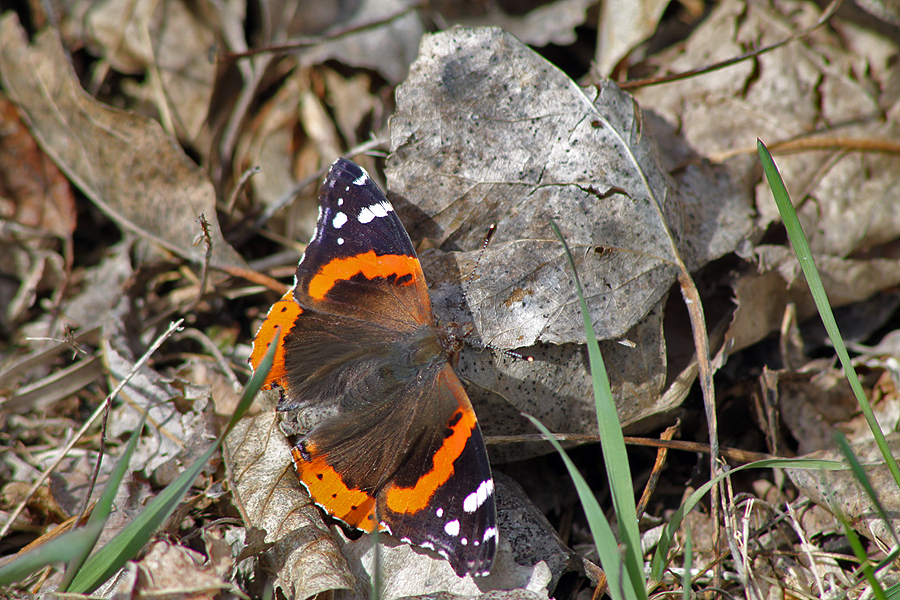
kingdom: Animalia
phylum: Arthropoda
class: Insecta
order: Lepidoptera
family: Nymphalidae
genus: Vanessa
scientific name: Vanessa atalanta
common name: Red admiral
